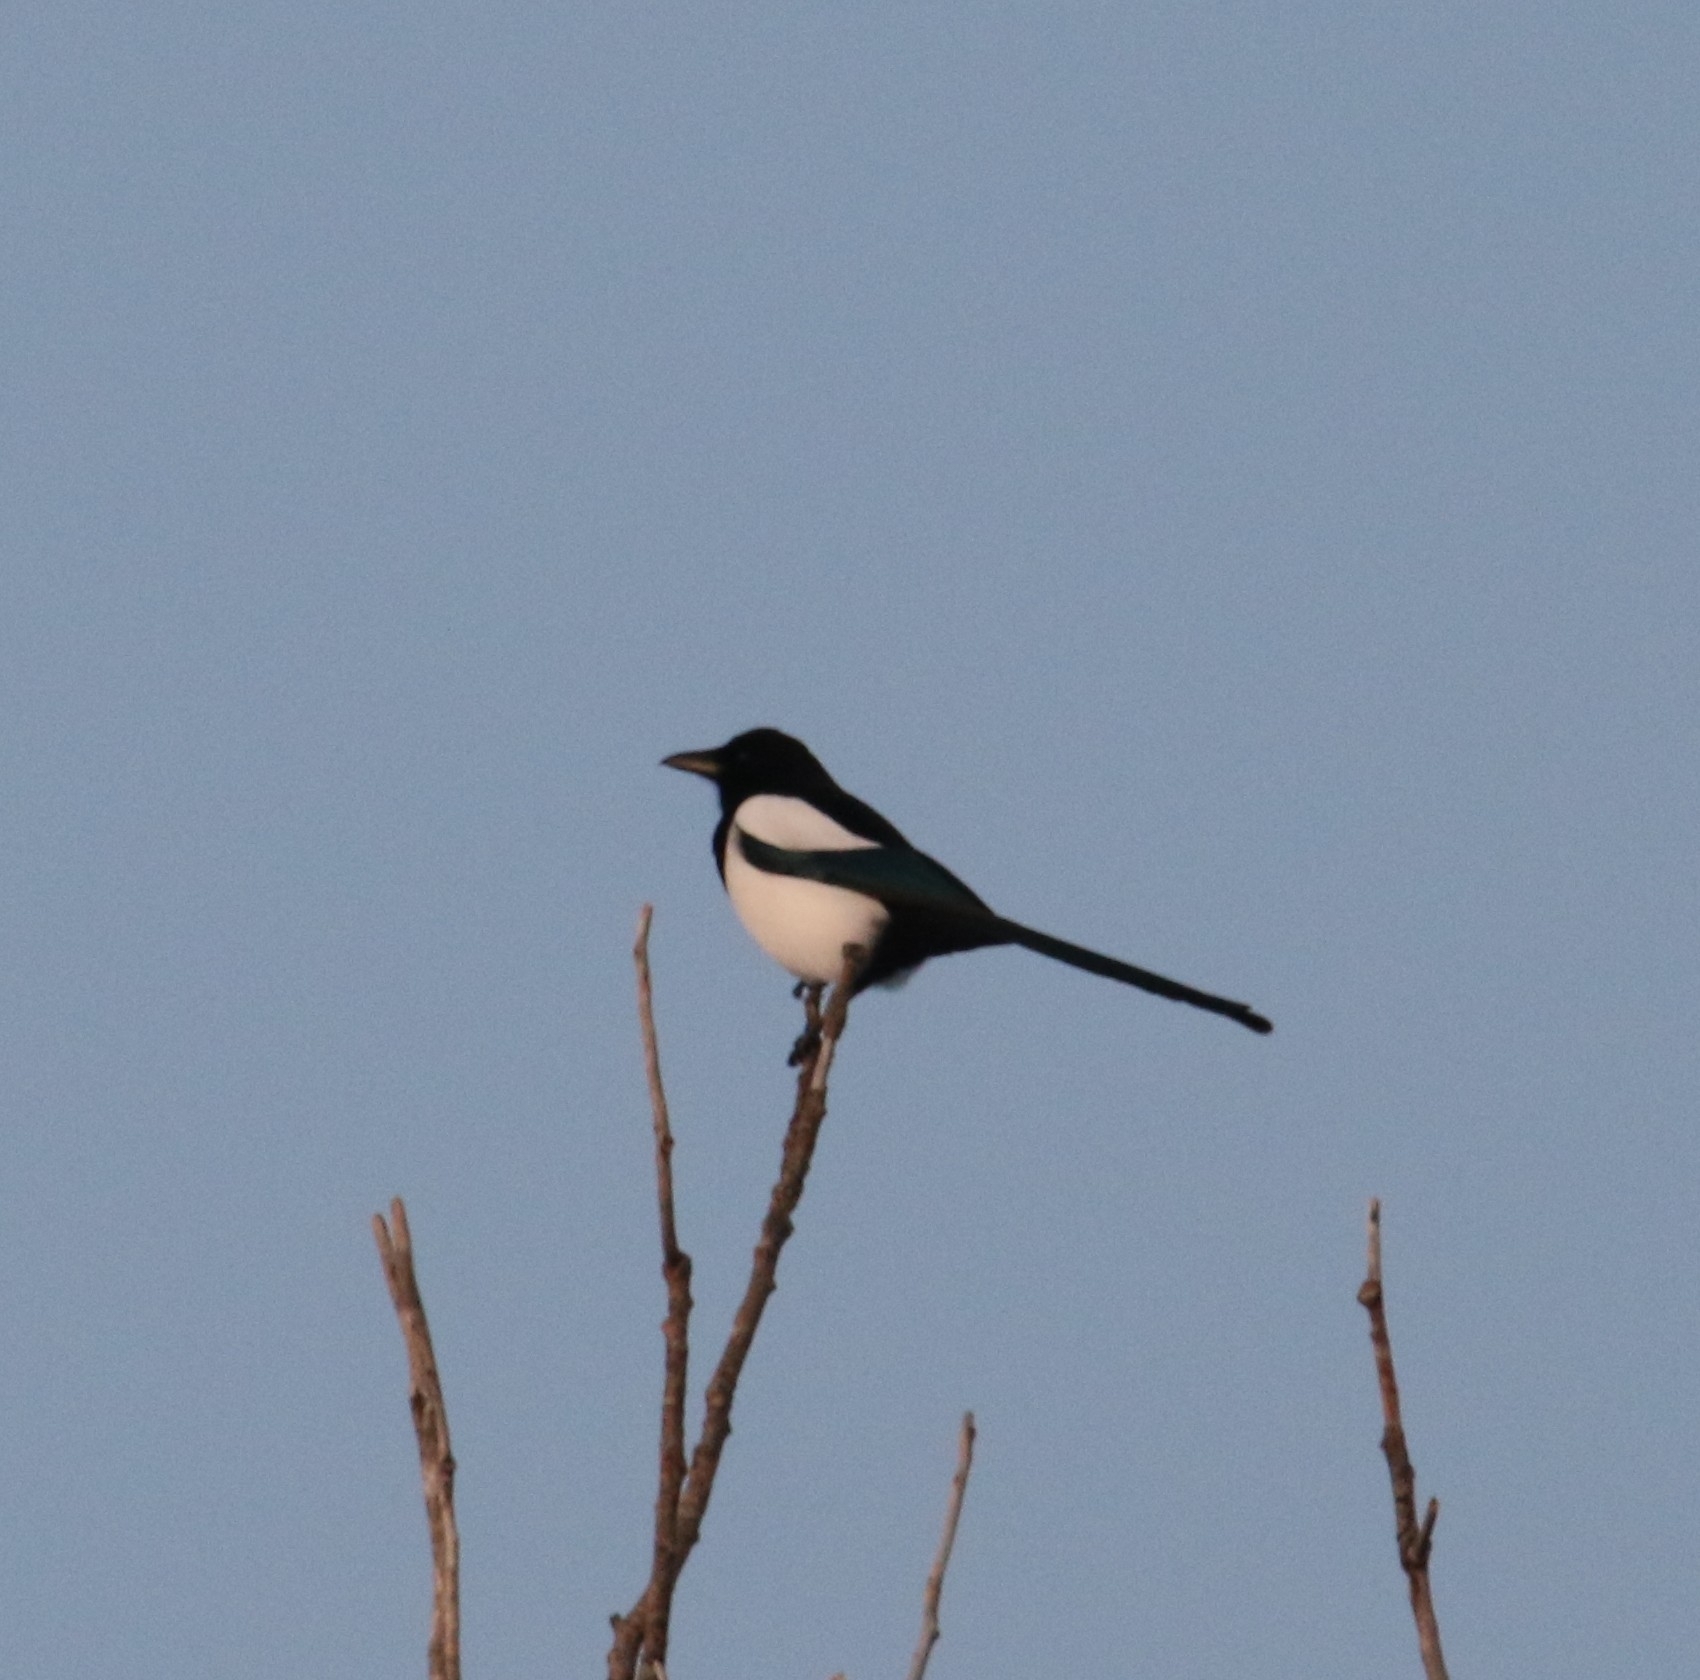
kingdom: Animalia
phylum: Chordata
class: Aves
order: Passeriformes
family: Corvidae
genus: Pica
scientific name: Pica pica
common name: Eurasian magpie
